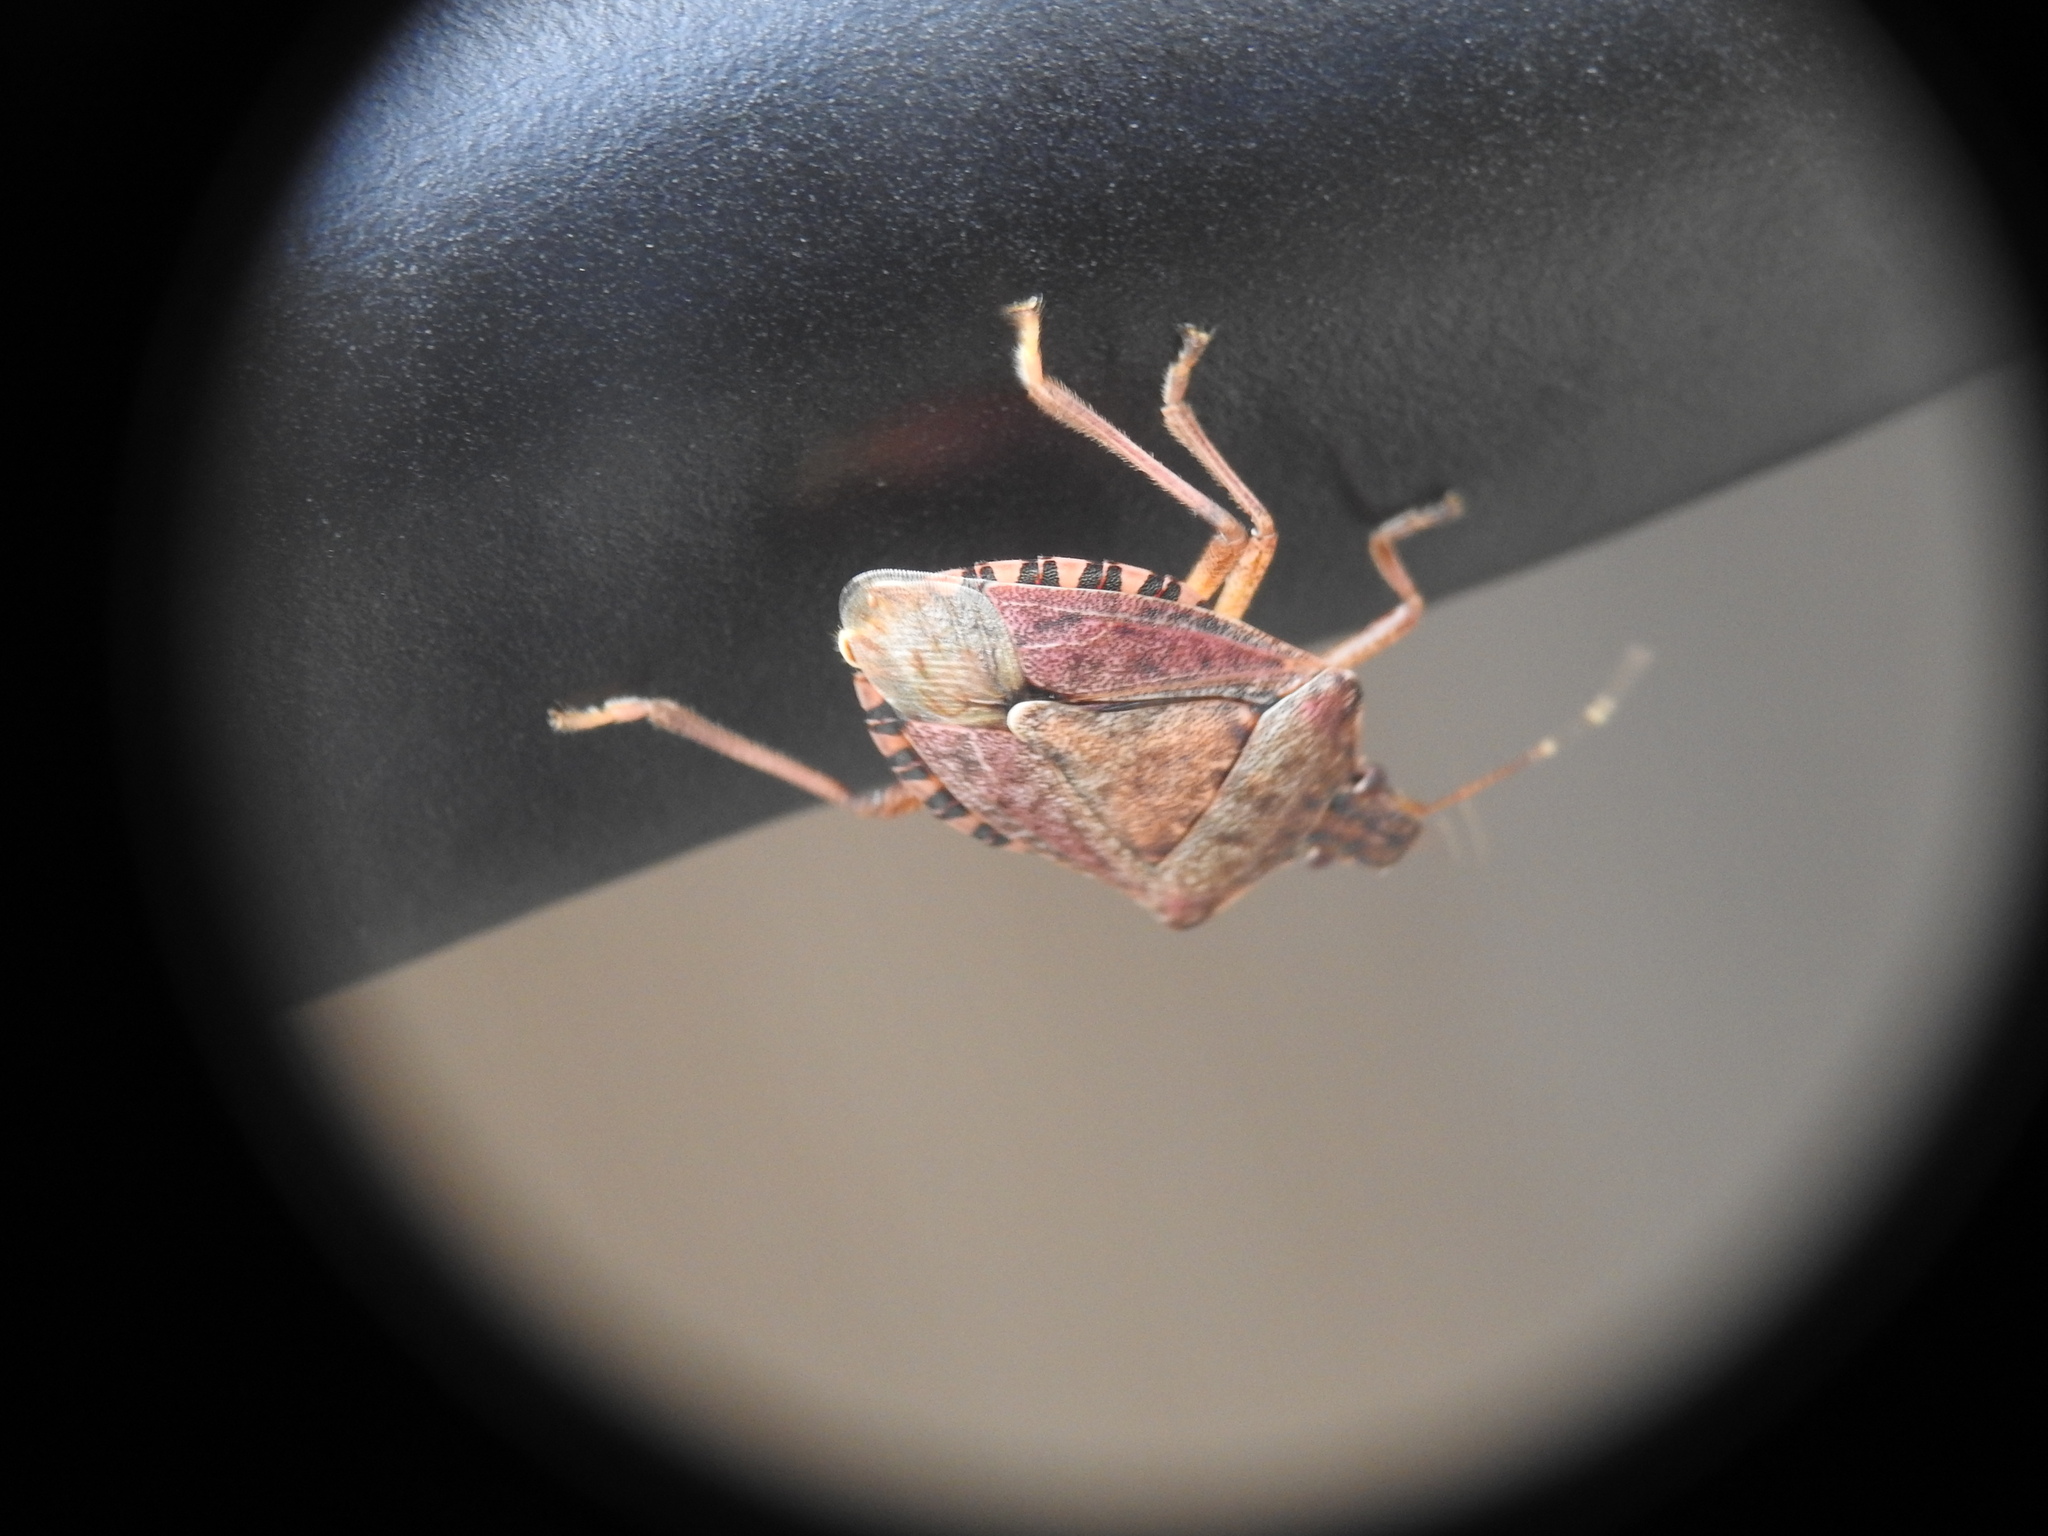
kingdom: Animalia
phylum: Arthropoda
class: Insecta
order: Hemiptera
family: Pentatomidae
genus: Halyomorpha
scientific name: Halyomorpha halys
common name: Brown marmorated stink bug
